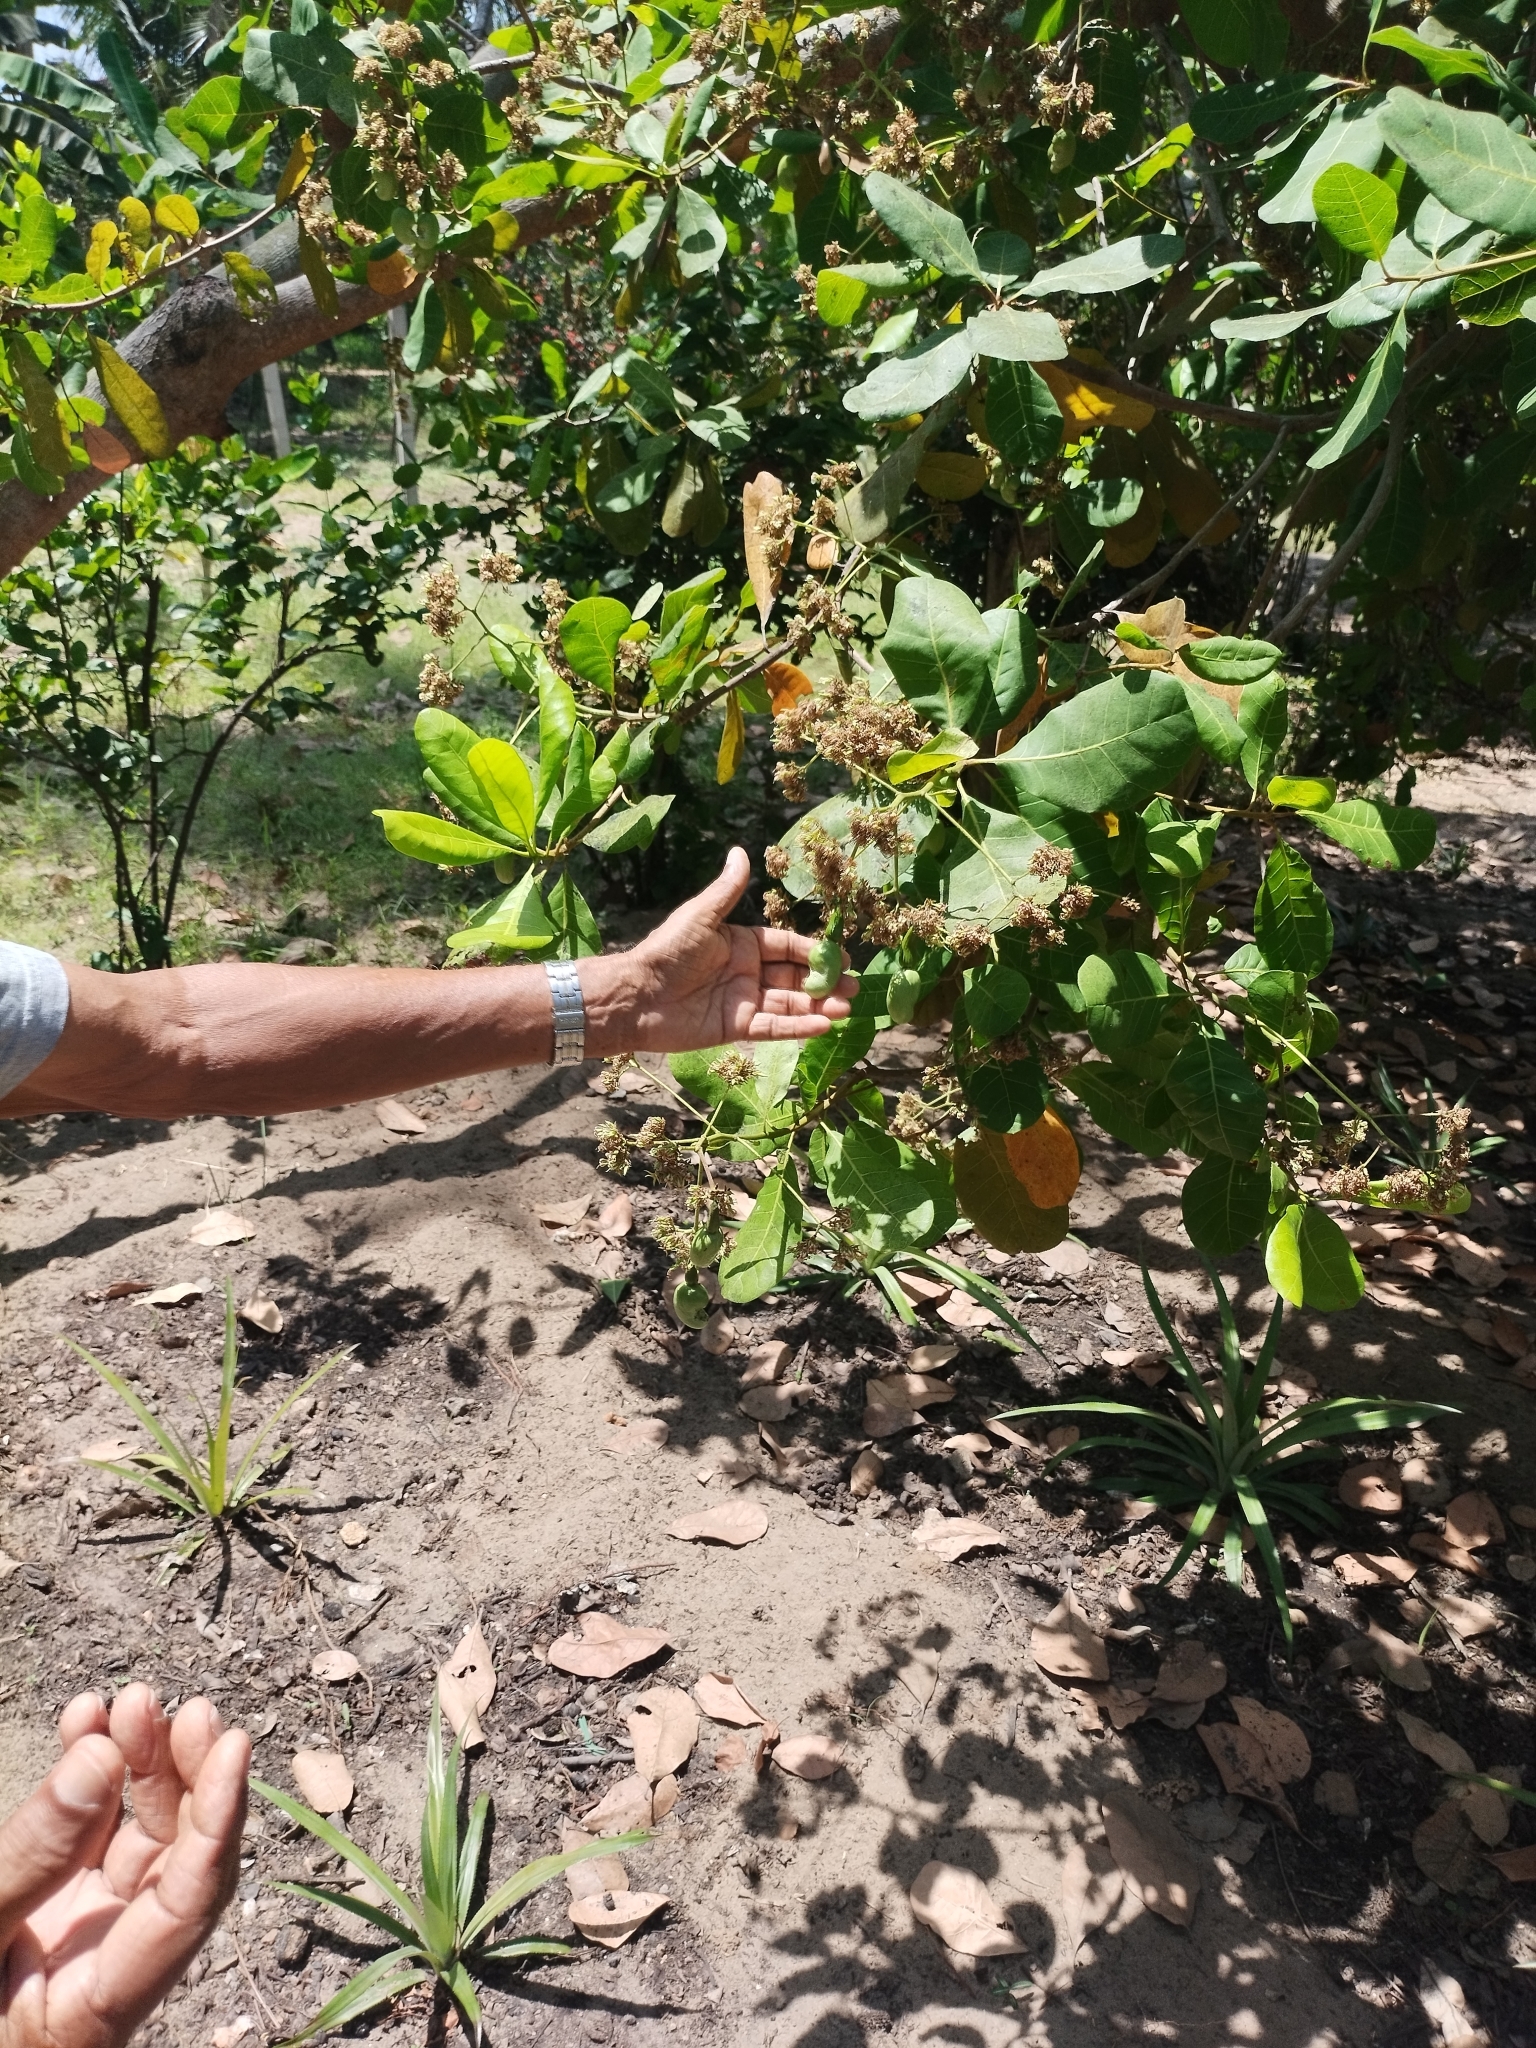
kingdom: Plantae
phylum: Tracheophyta
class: Magnoliopsida
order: Sapindales
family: Anacardiaceae
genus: Anacardium
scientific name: Anacardium occidentale
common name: Cashew
